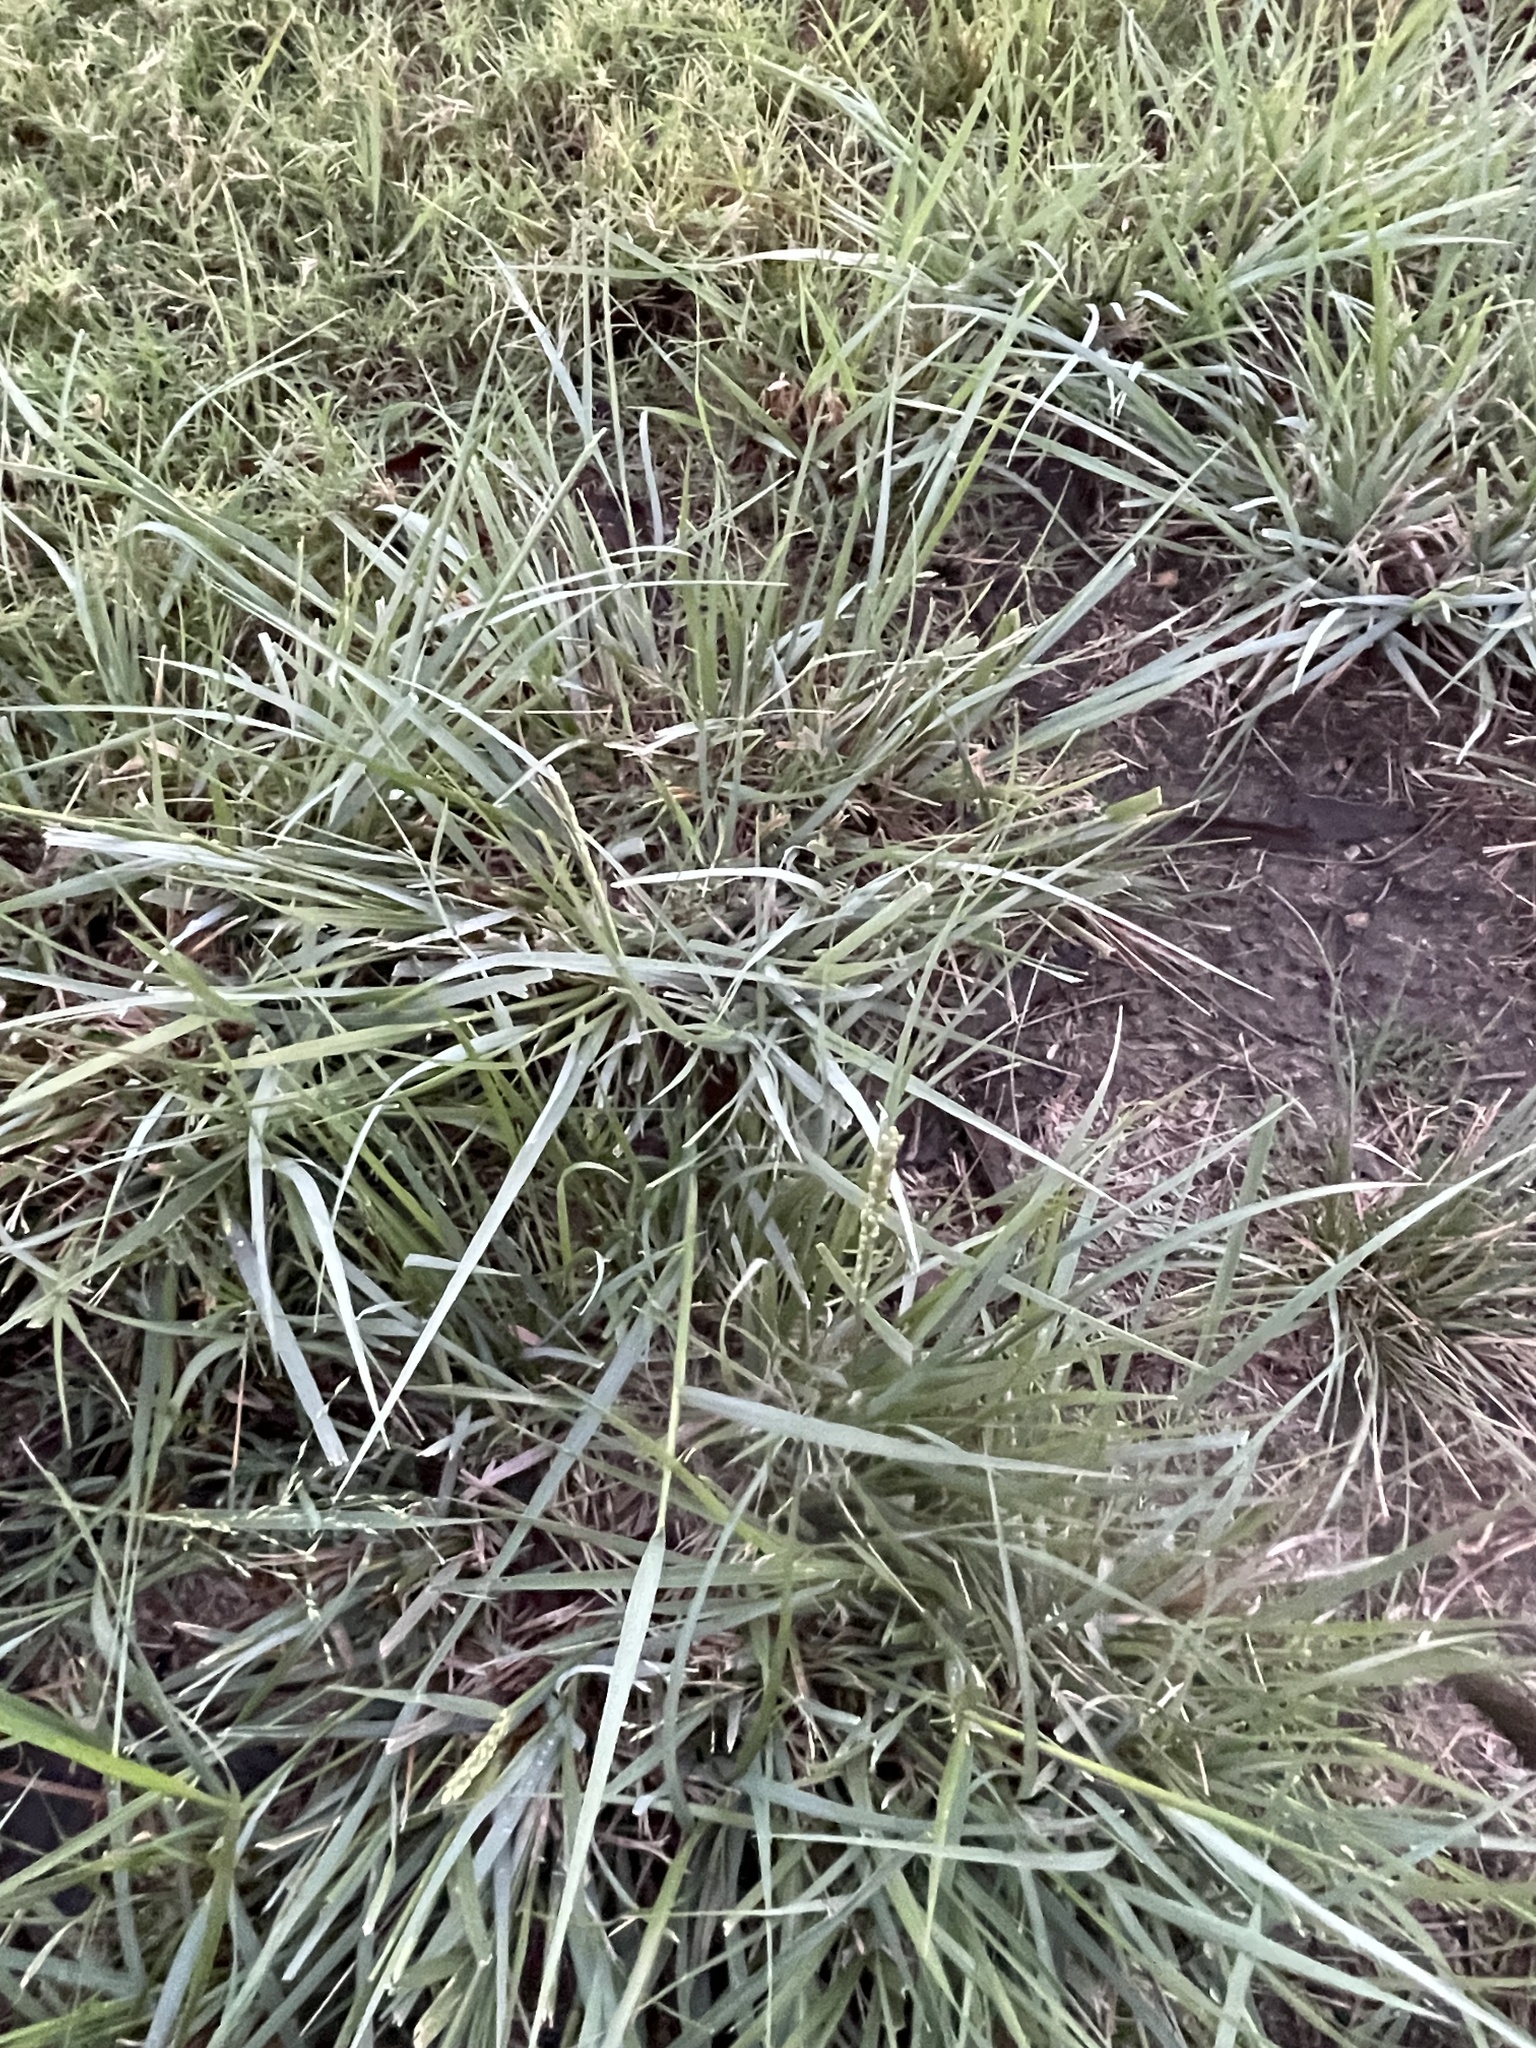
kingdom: Plantae
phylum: Tracheophyta
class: Liliopsida
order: Poales
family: Poaceae
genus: Tridens
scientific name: Tridens albescens
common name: White tridens
